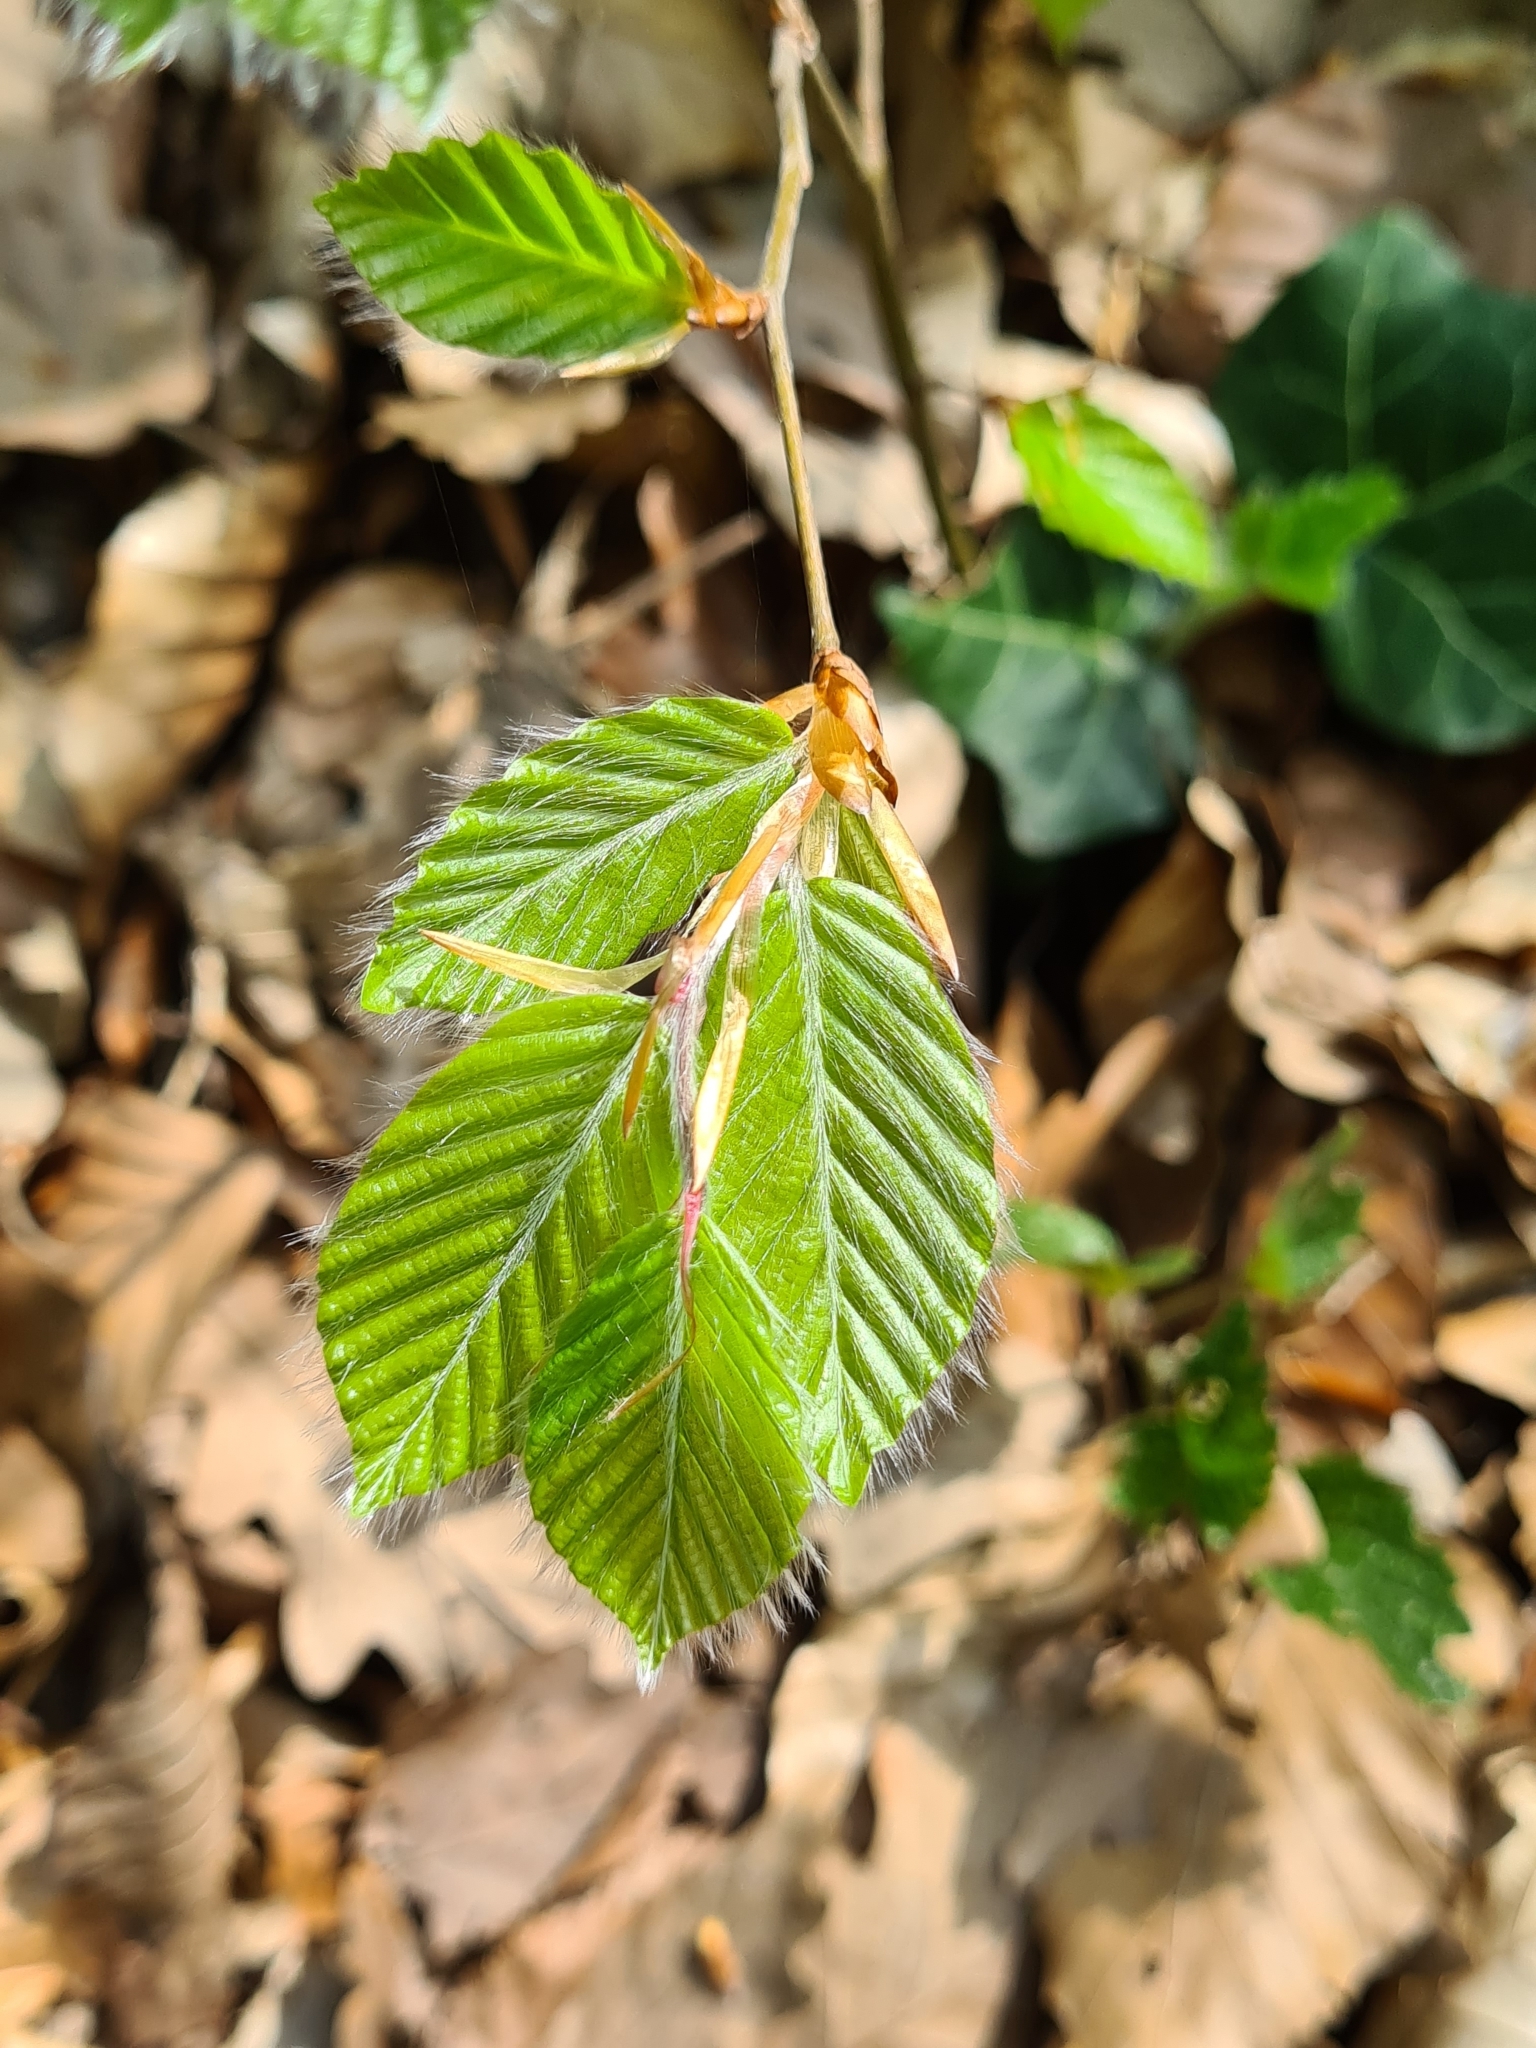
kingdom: Plantae
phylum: Tracheophyta
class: Magnoliopsida
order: Fagales
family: Fagaceae
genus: Fagus
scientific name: Fagus sylvatica
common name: Beech
